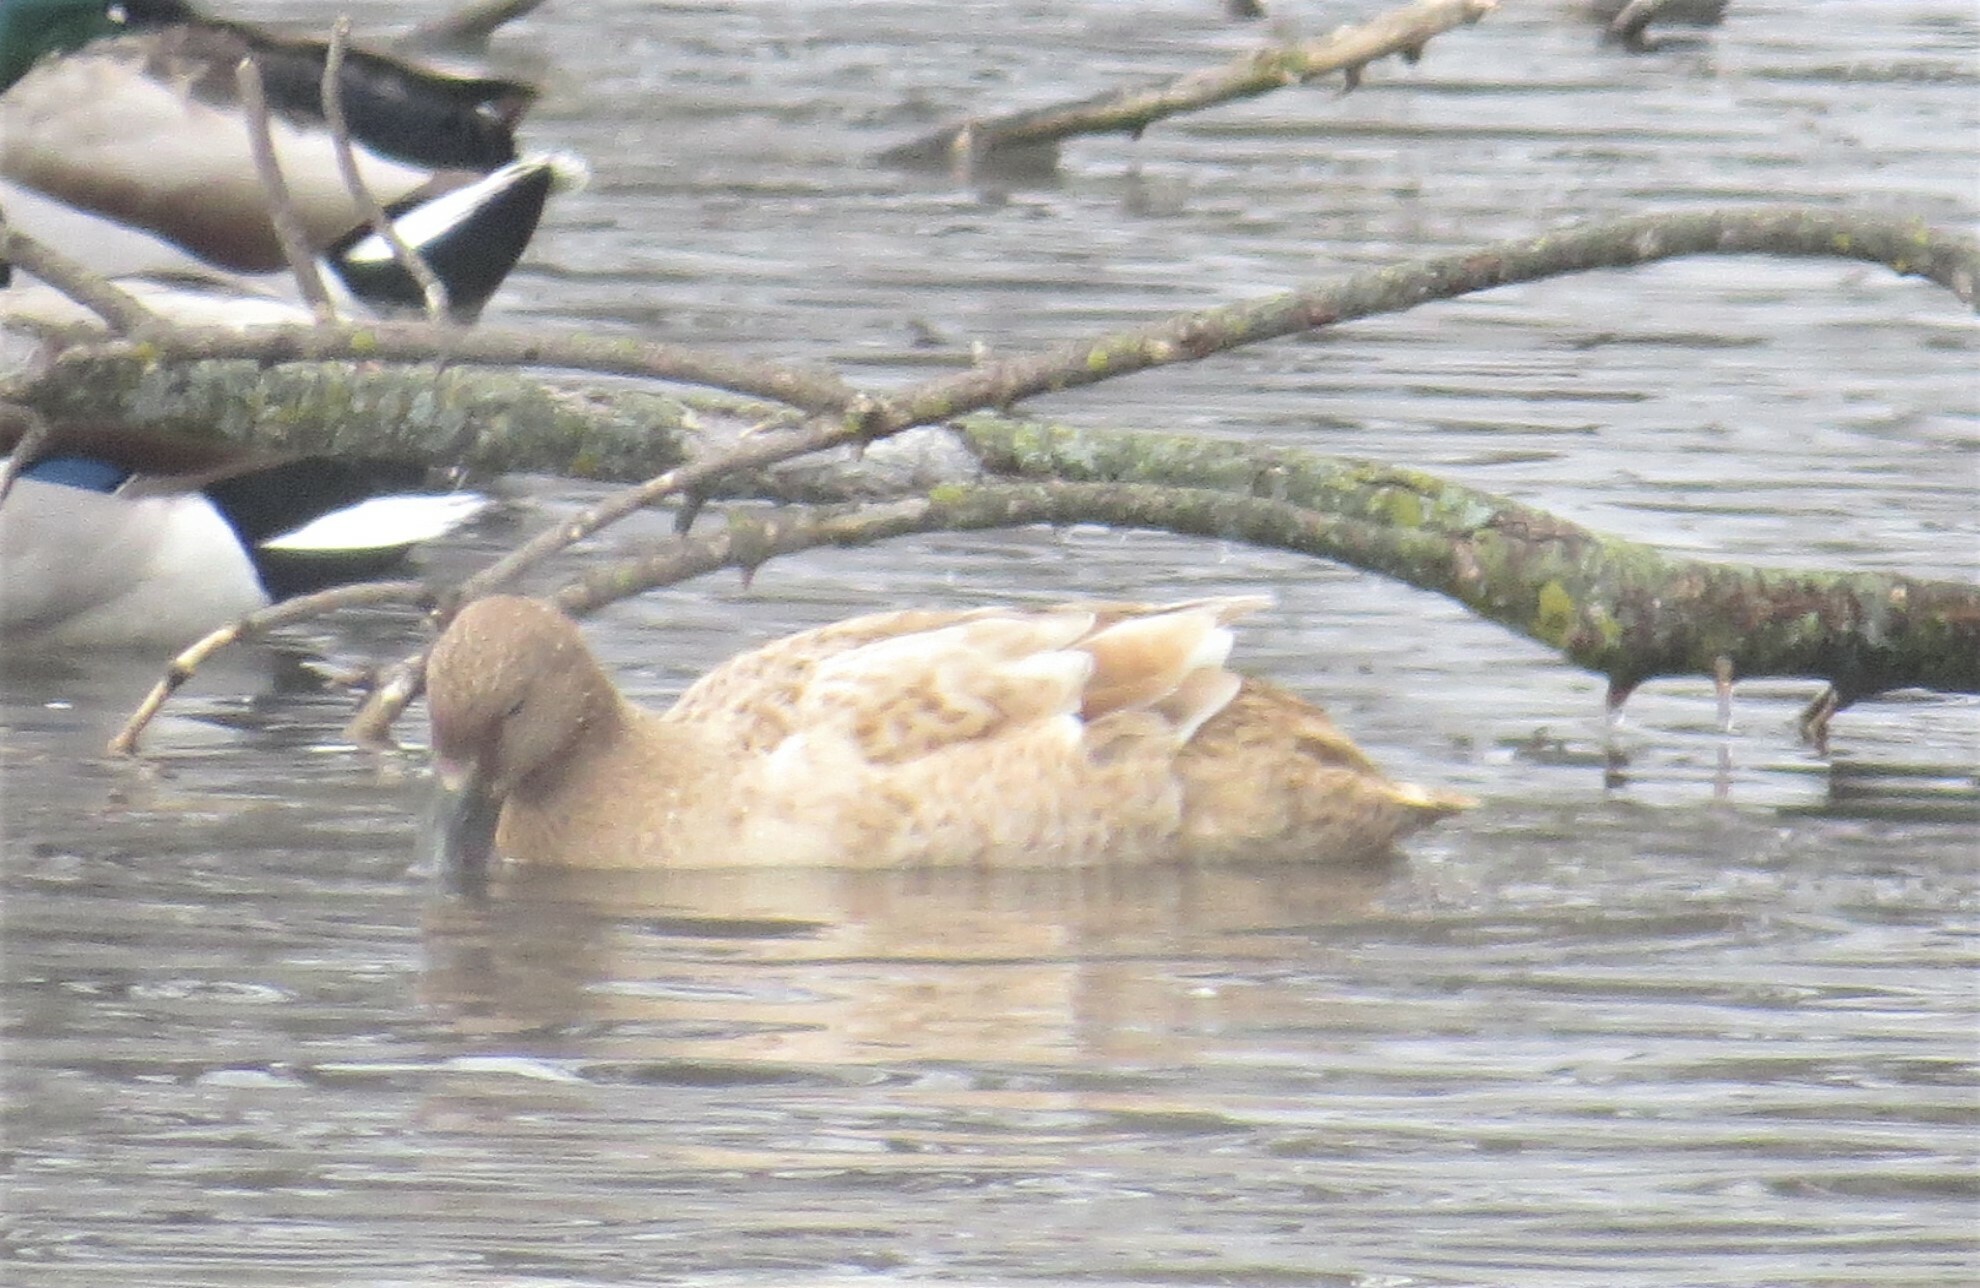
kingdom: Animalia
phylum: Chordata
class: Aves
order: Anseriformes
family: Anatidae
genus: Anas
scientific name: Anas platyrhynchos
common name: Mallard
